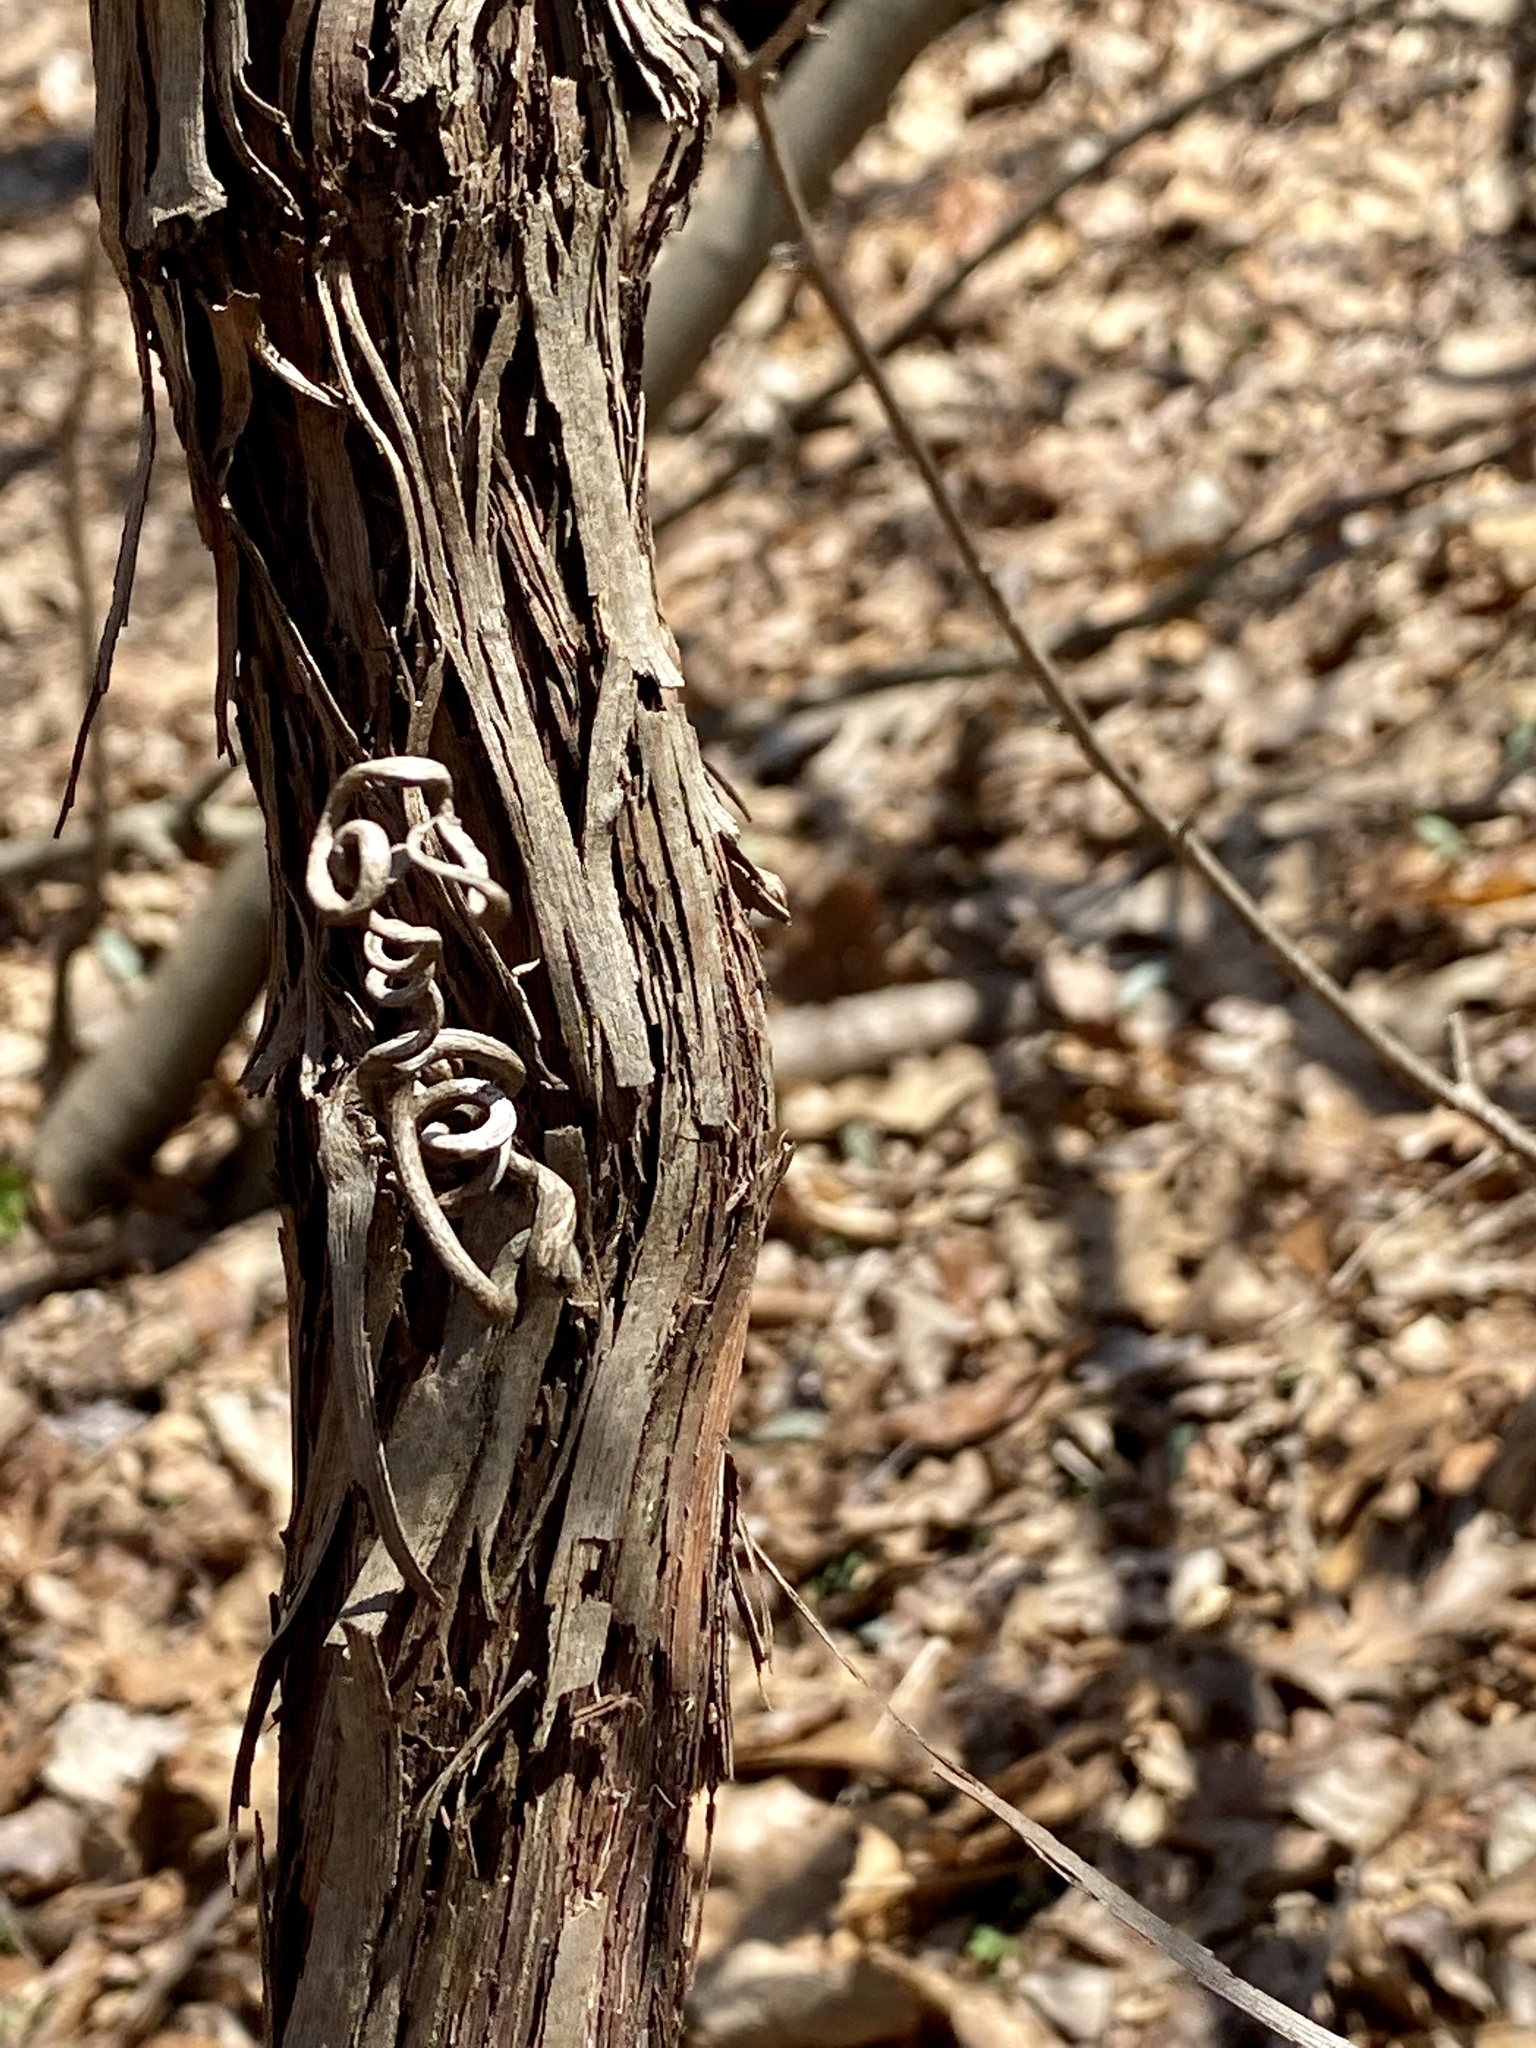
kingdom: Plantae
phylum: Tracheophyta
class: Magnoliopsida
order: Vitales
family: Vitaceae
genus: Vitis
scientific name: Vitis
